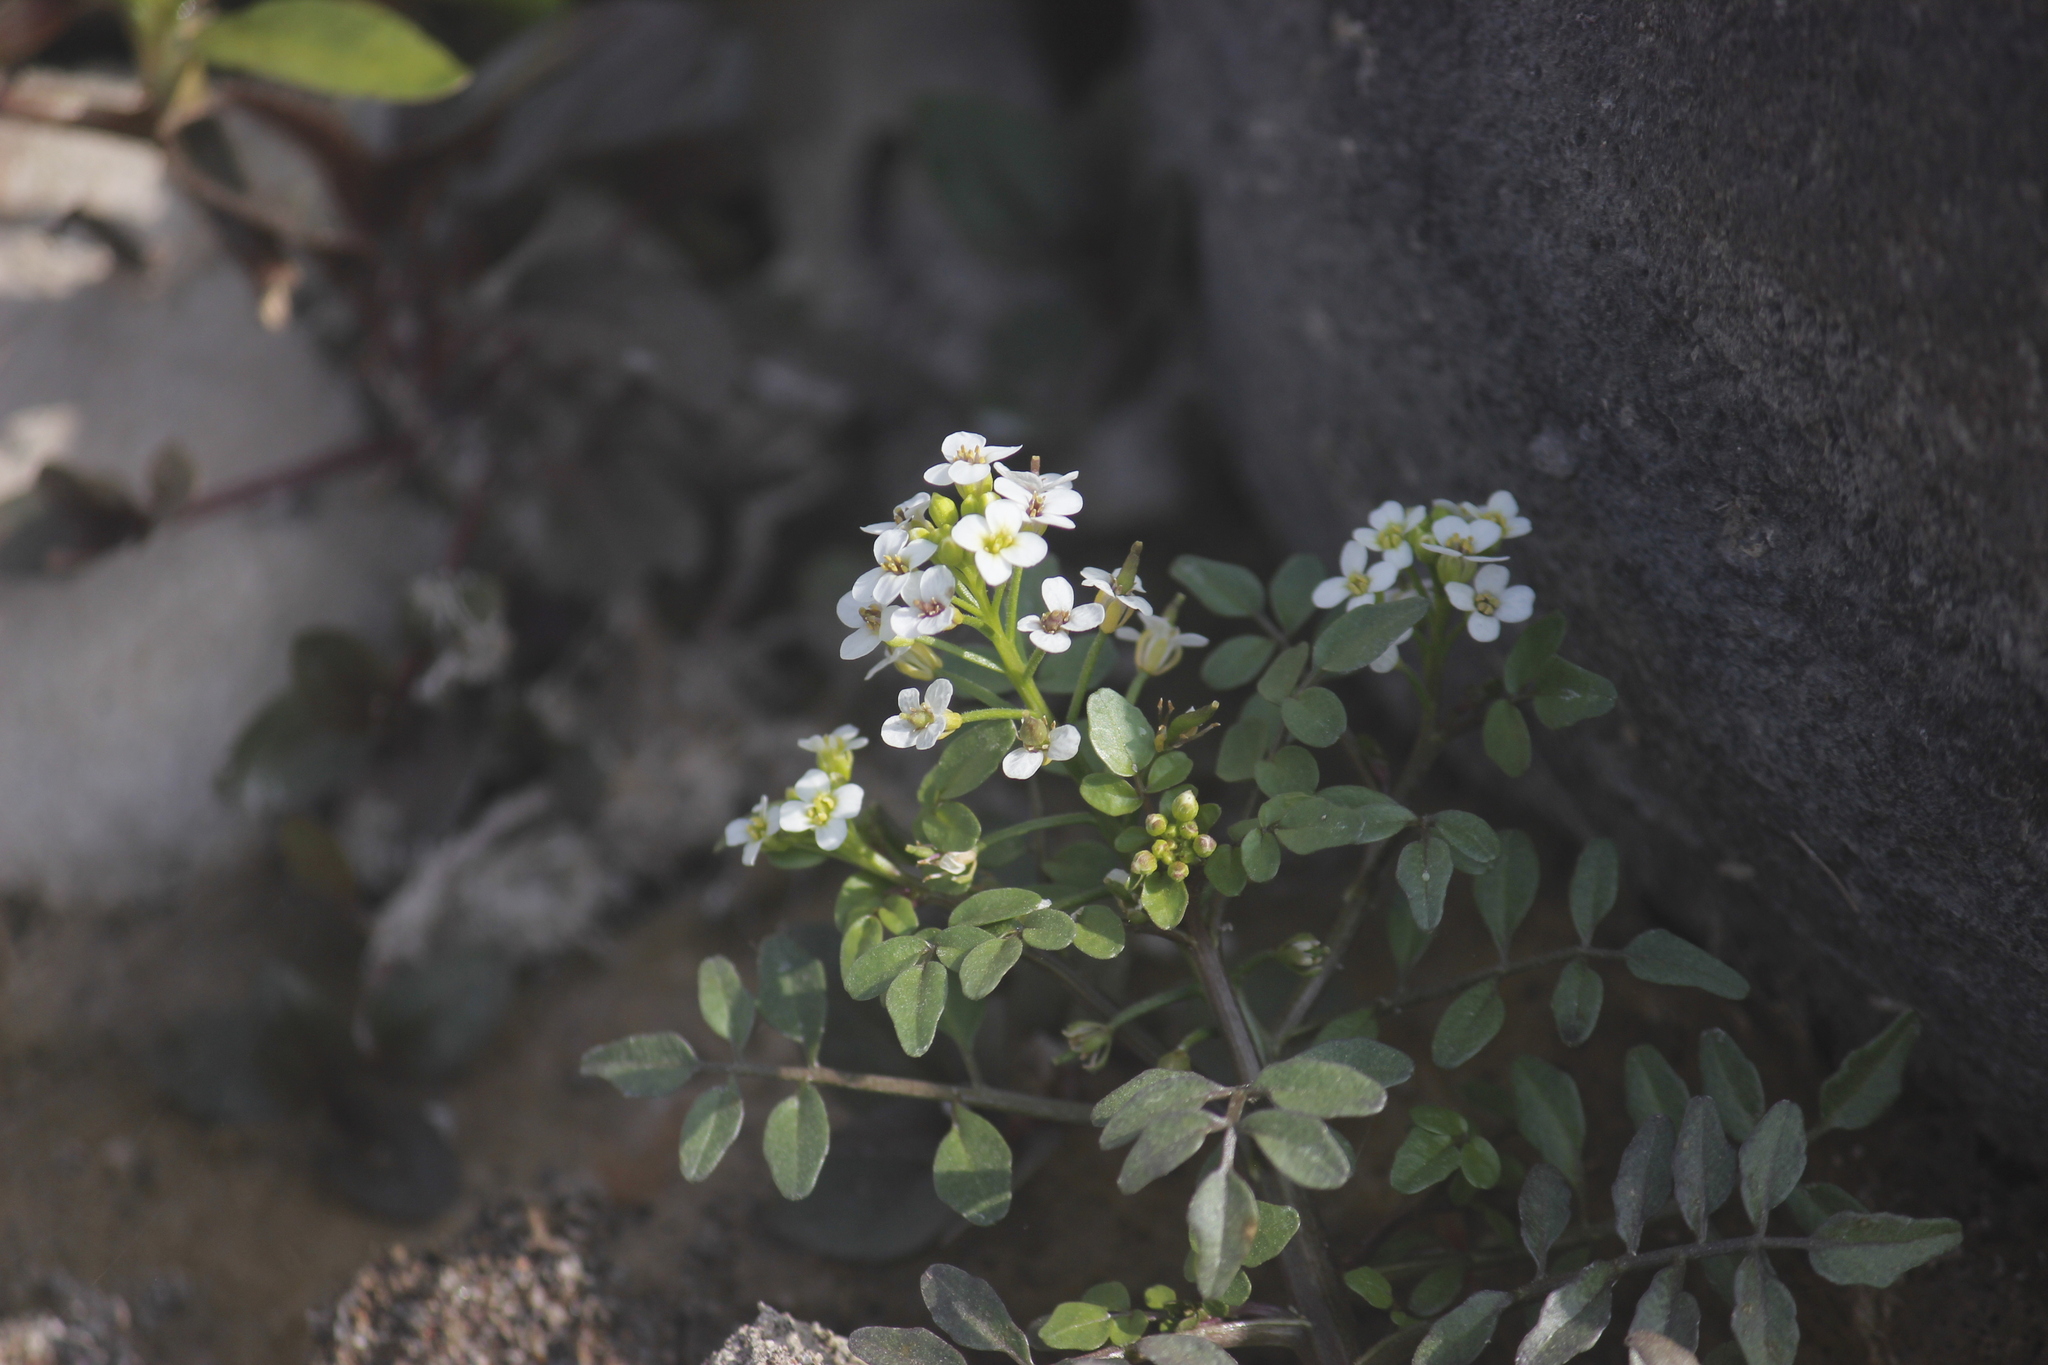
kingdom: Plantae
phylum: Tracheophyta
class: Magnoliopsida
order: Brassicales
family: Brassicaceae
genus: Nasturtium
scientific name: Nasturtium officinale
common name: Watercress
